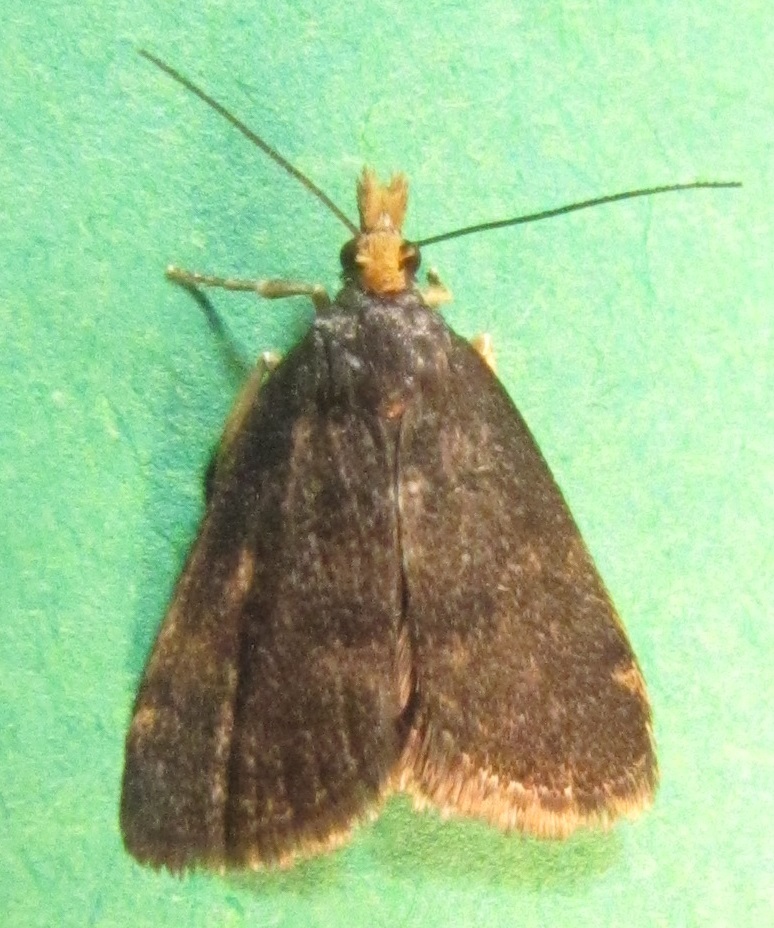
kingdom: Animalia
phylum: Arthropoda
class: Insecta
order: Lepidoptera
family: Crambidae
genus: Pyrausta
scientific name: Pyrausta merrickalis
